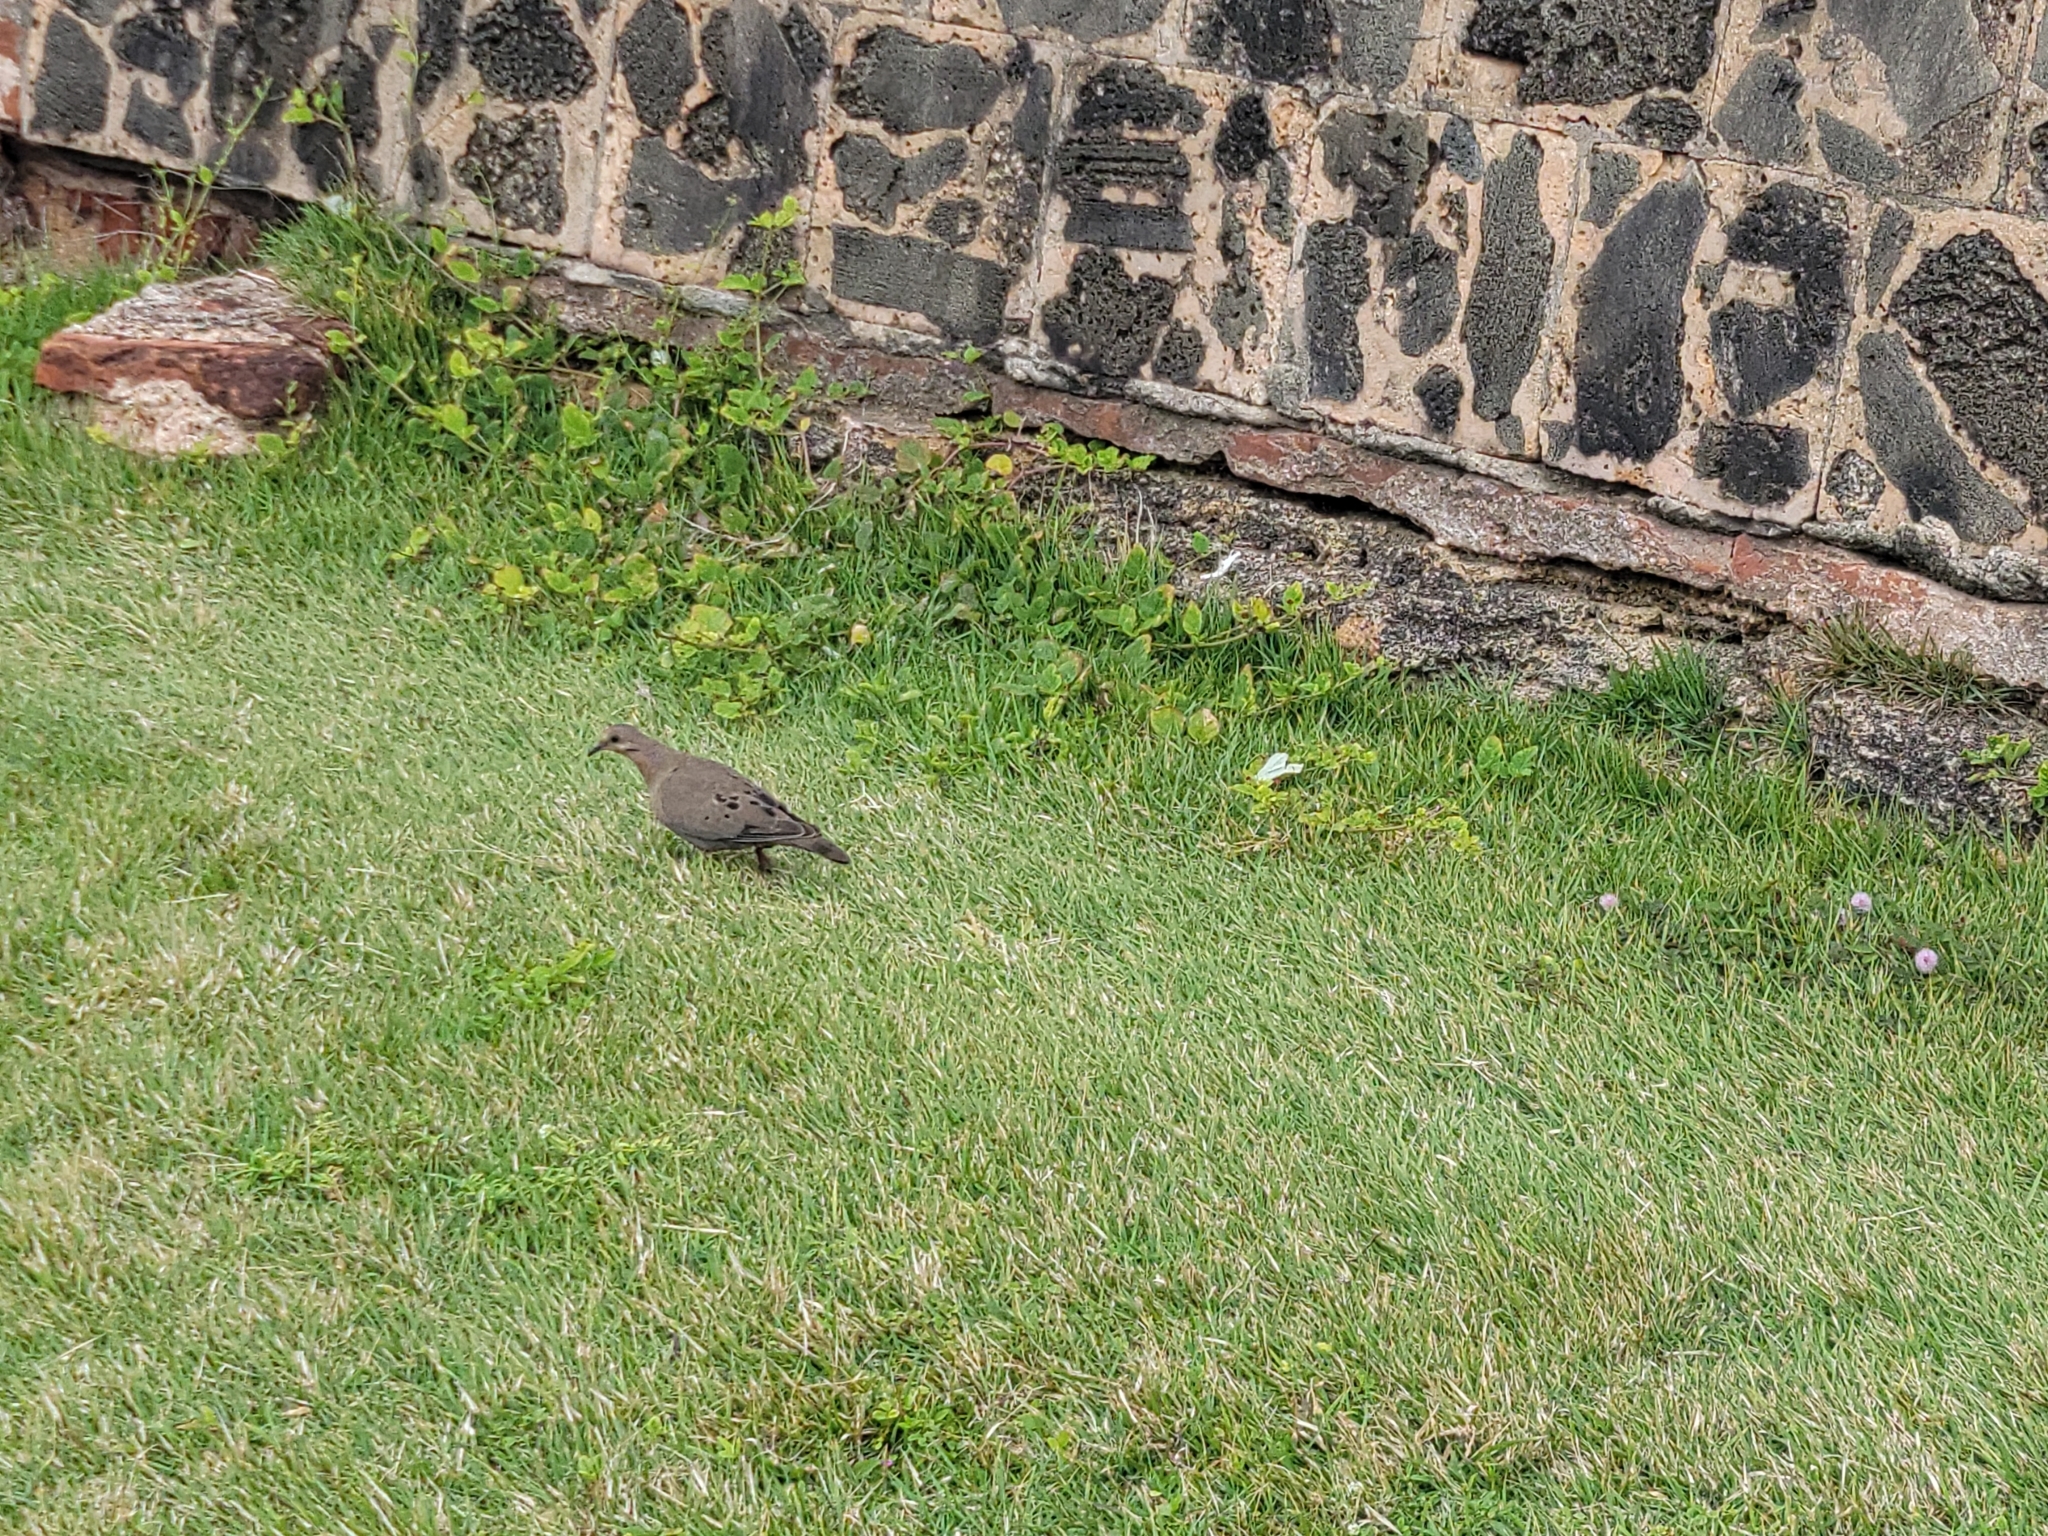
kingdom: Animalia
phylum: Chordata
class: Aves
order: Columbiformes
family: Columbidae
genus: Zenaida
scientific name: Zenaida aurita
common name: Zenaida dove
